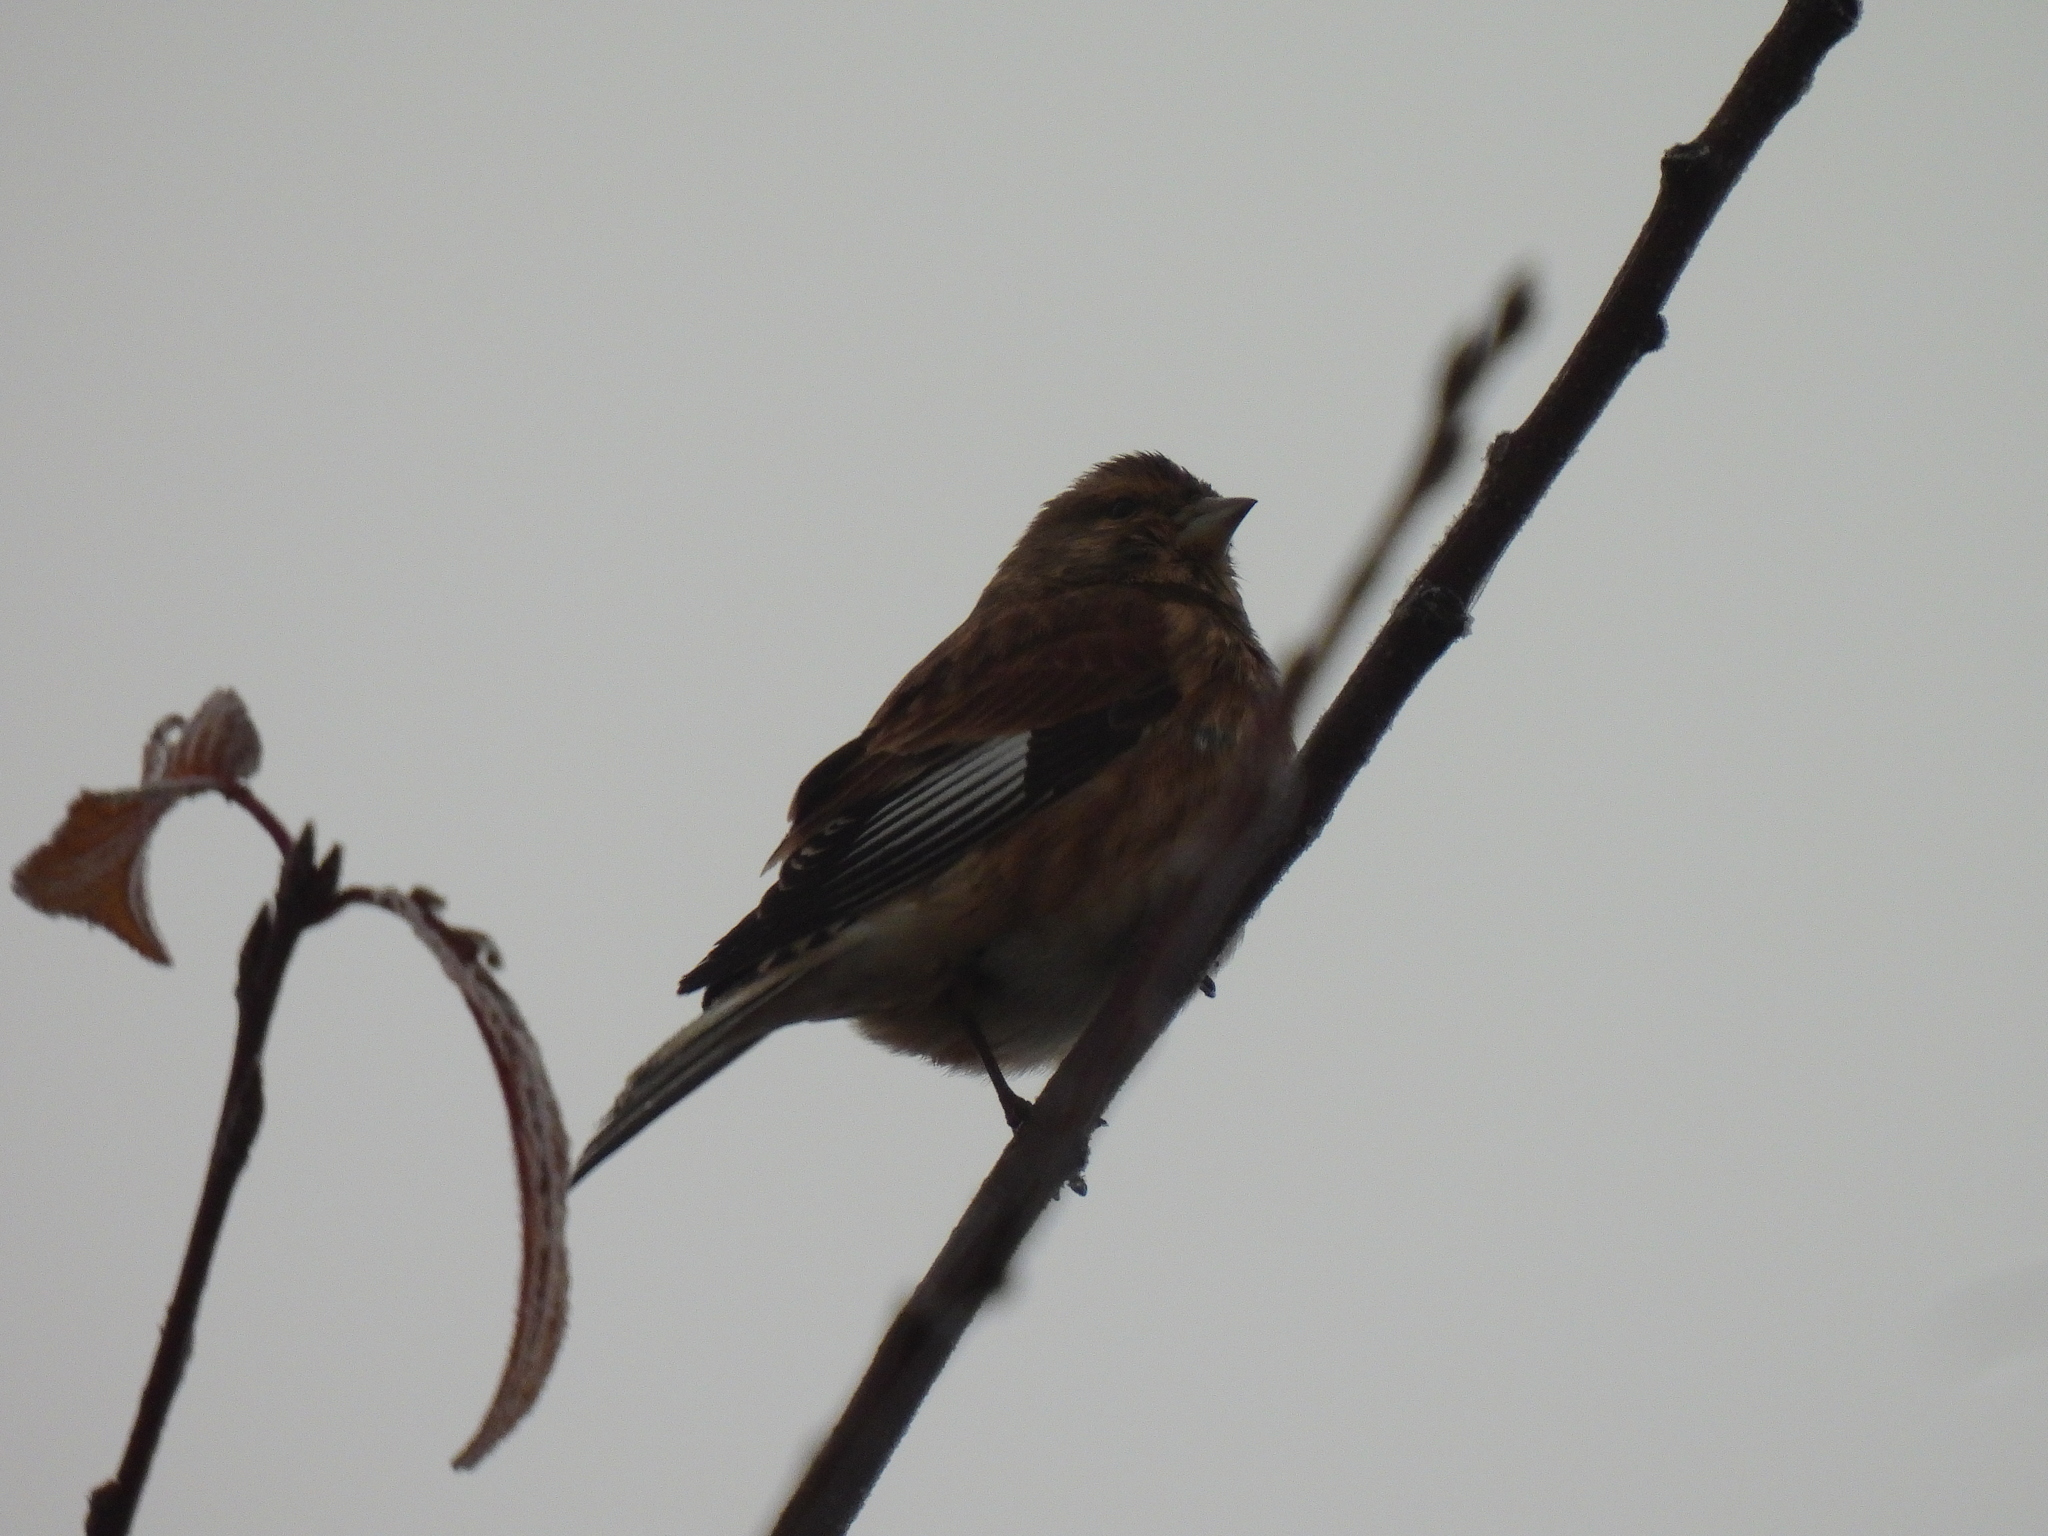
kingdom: Animalia
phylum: Chordata
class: Aves
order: Passeriformes
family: Fringillidae
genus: Linaria
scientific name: Linaria cannabina
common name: Common linnet
